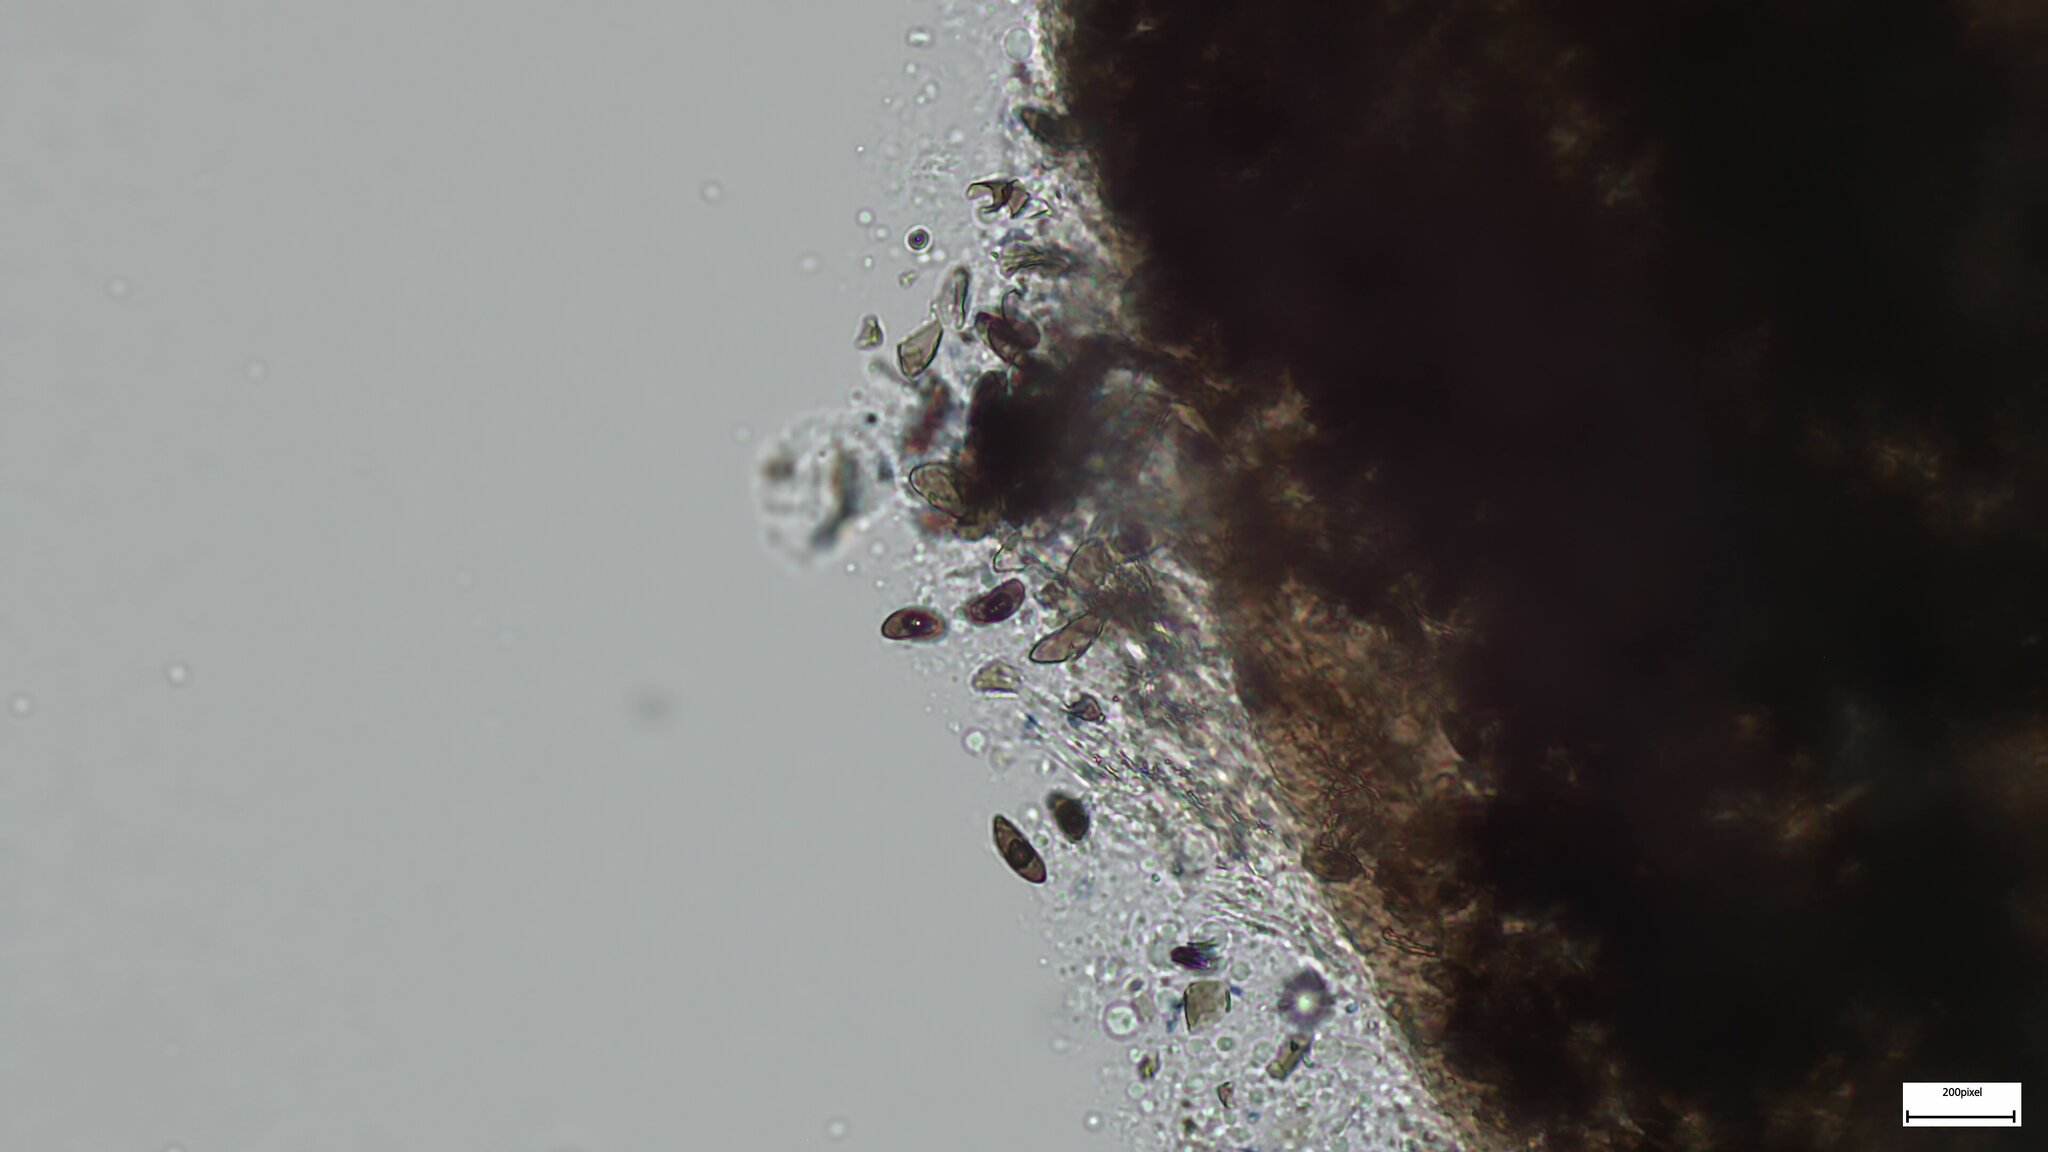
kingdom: Fungi
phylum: Ascomycota
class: Sordariomycetes
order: Xylariales
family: Xylariaceae
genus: Xylaria
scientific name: Xylaria apiculata
